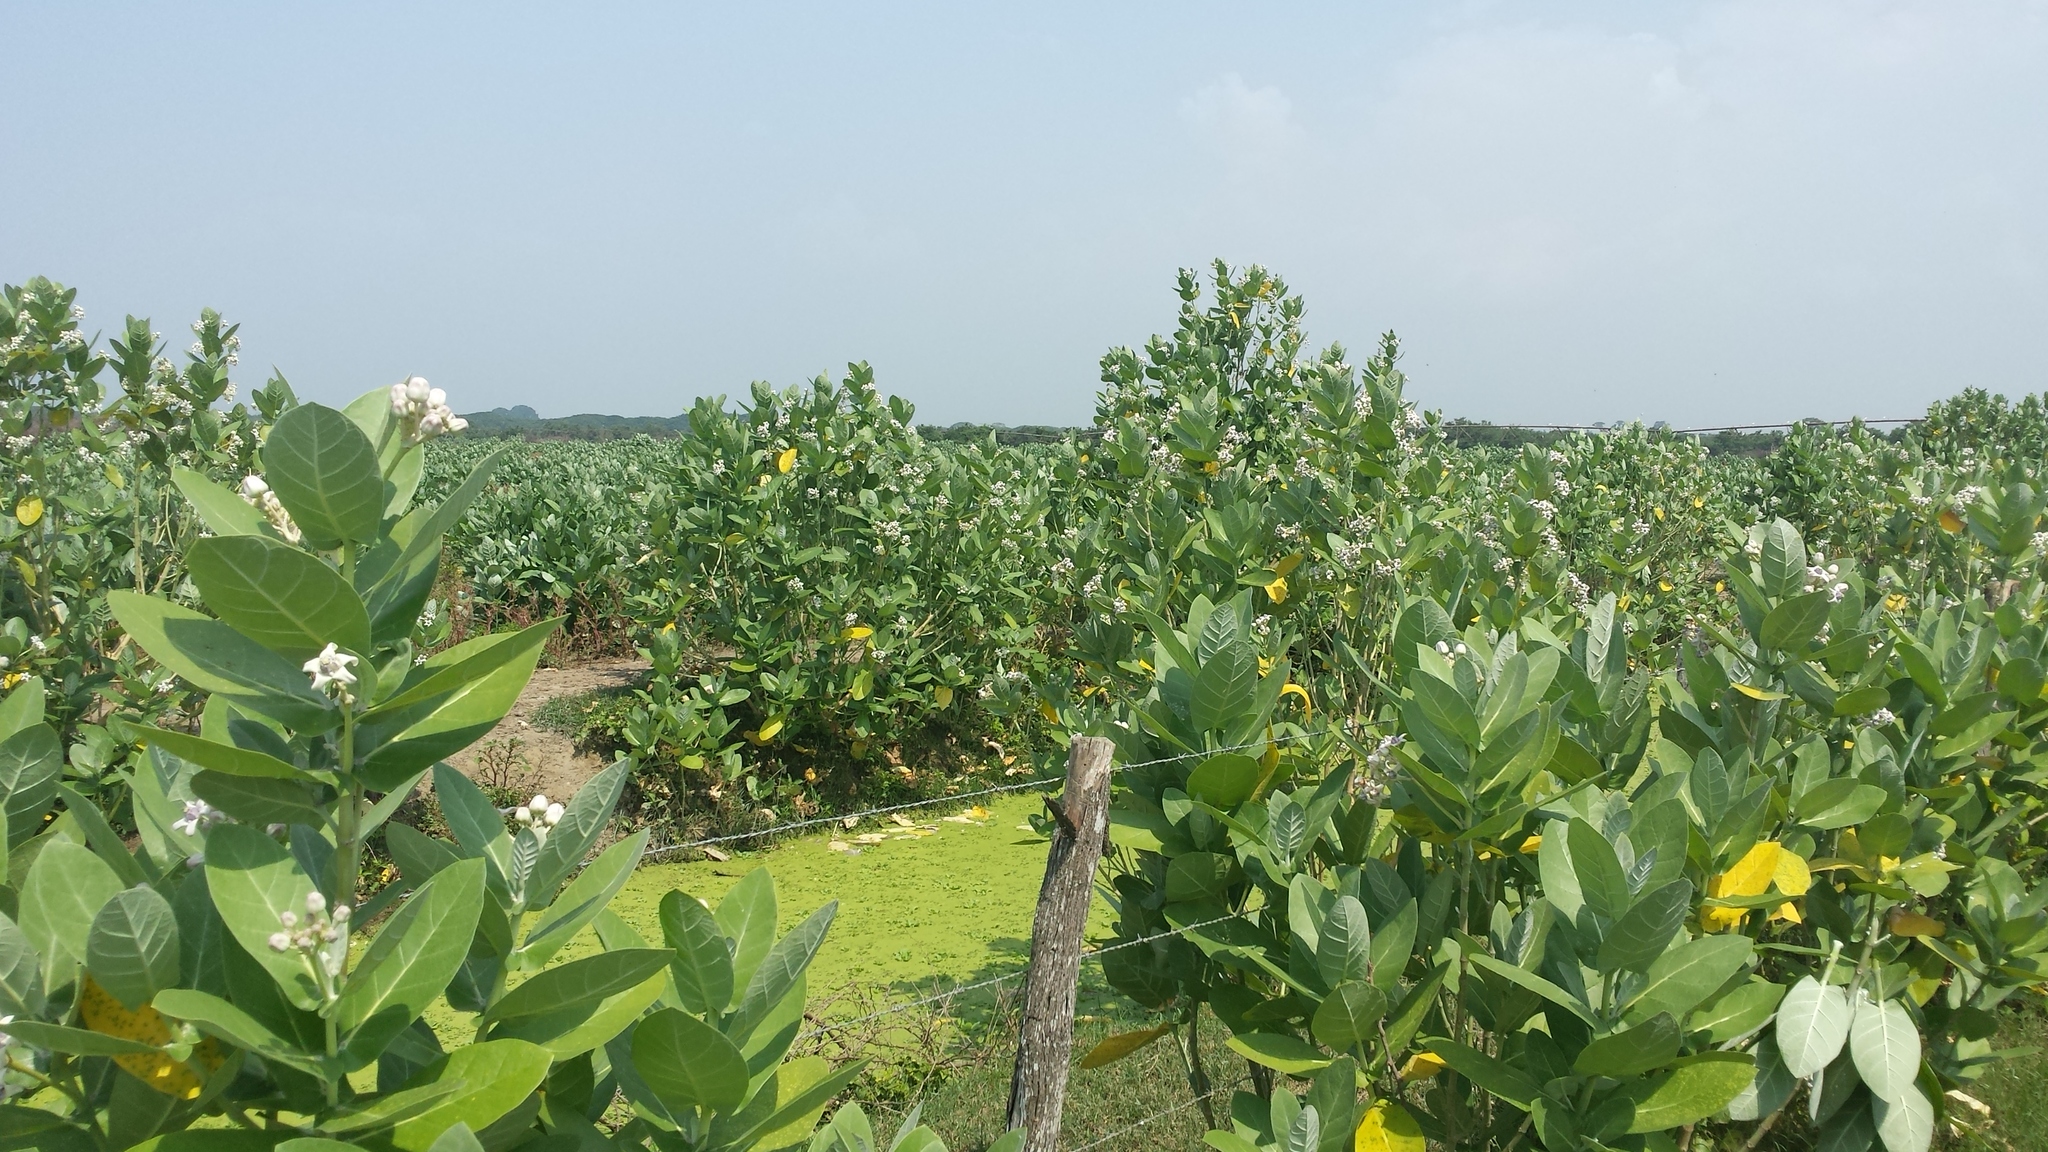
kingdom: Plantae
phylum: Tracheophyta
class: Magnoliopsida
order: Gentianales
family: Apocynaceae
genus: Calotropis
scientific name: Calotropis gigantea
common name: Crown flower
